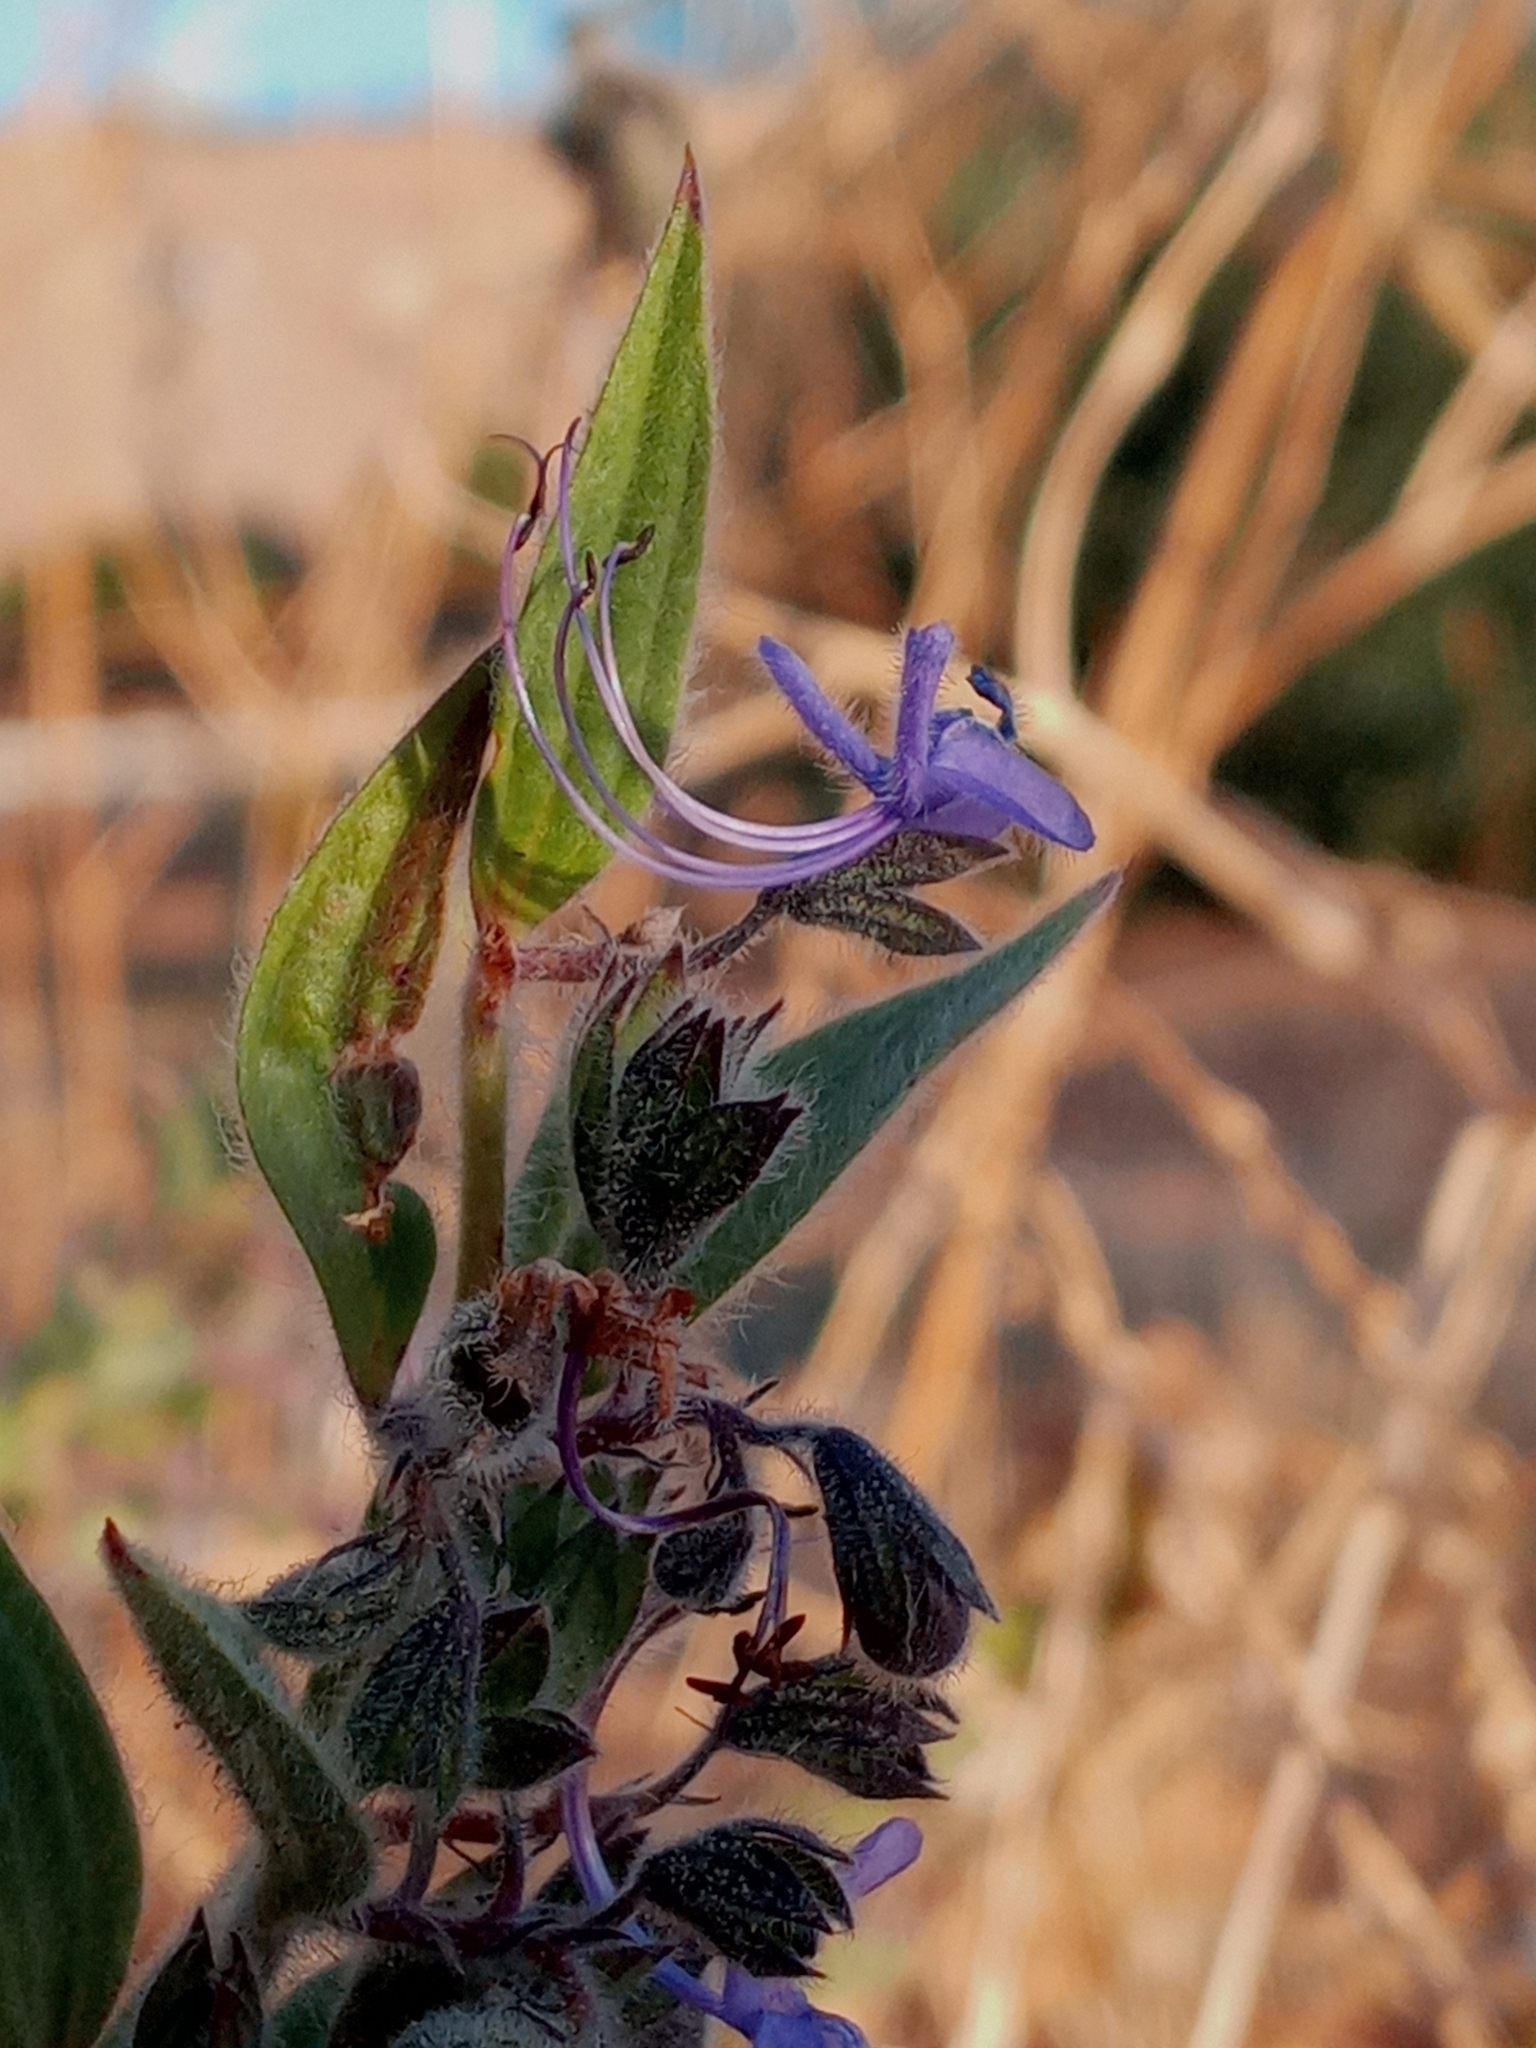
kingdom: Plantae
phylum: Tracheophyta
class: Magnoliopsida
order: Lamiales
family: Lamiaceae
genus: Trichostema
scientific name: Trichostema lanceolatum
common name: Vinegar-weed
